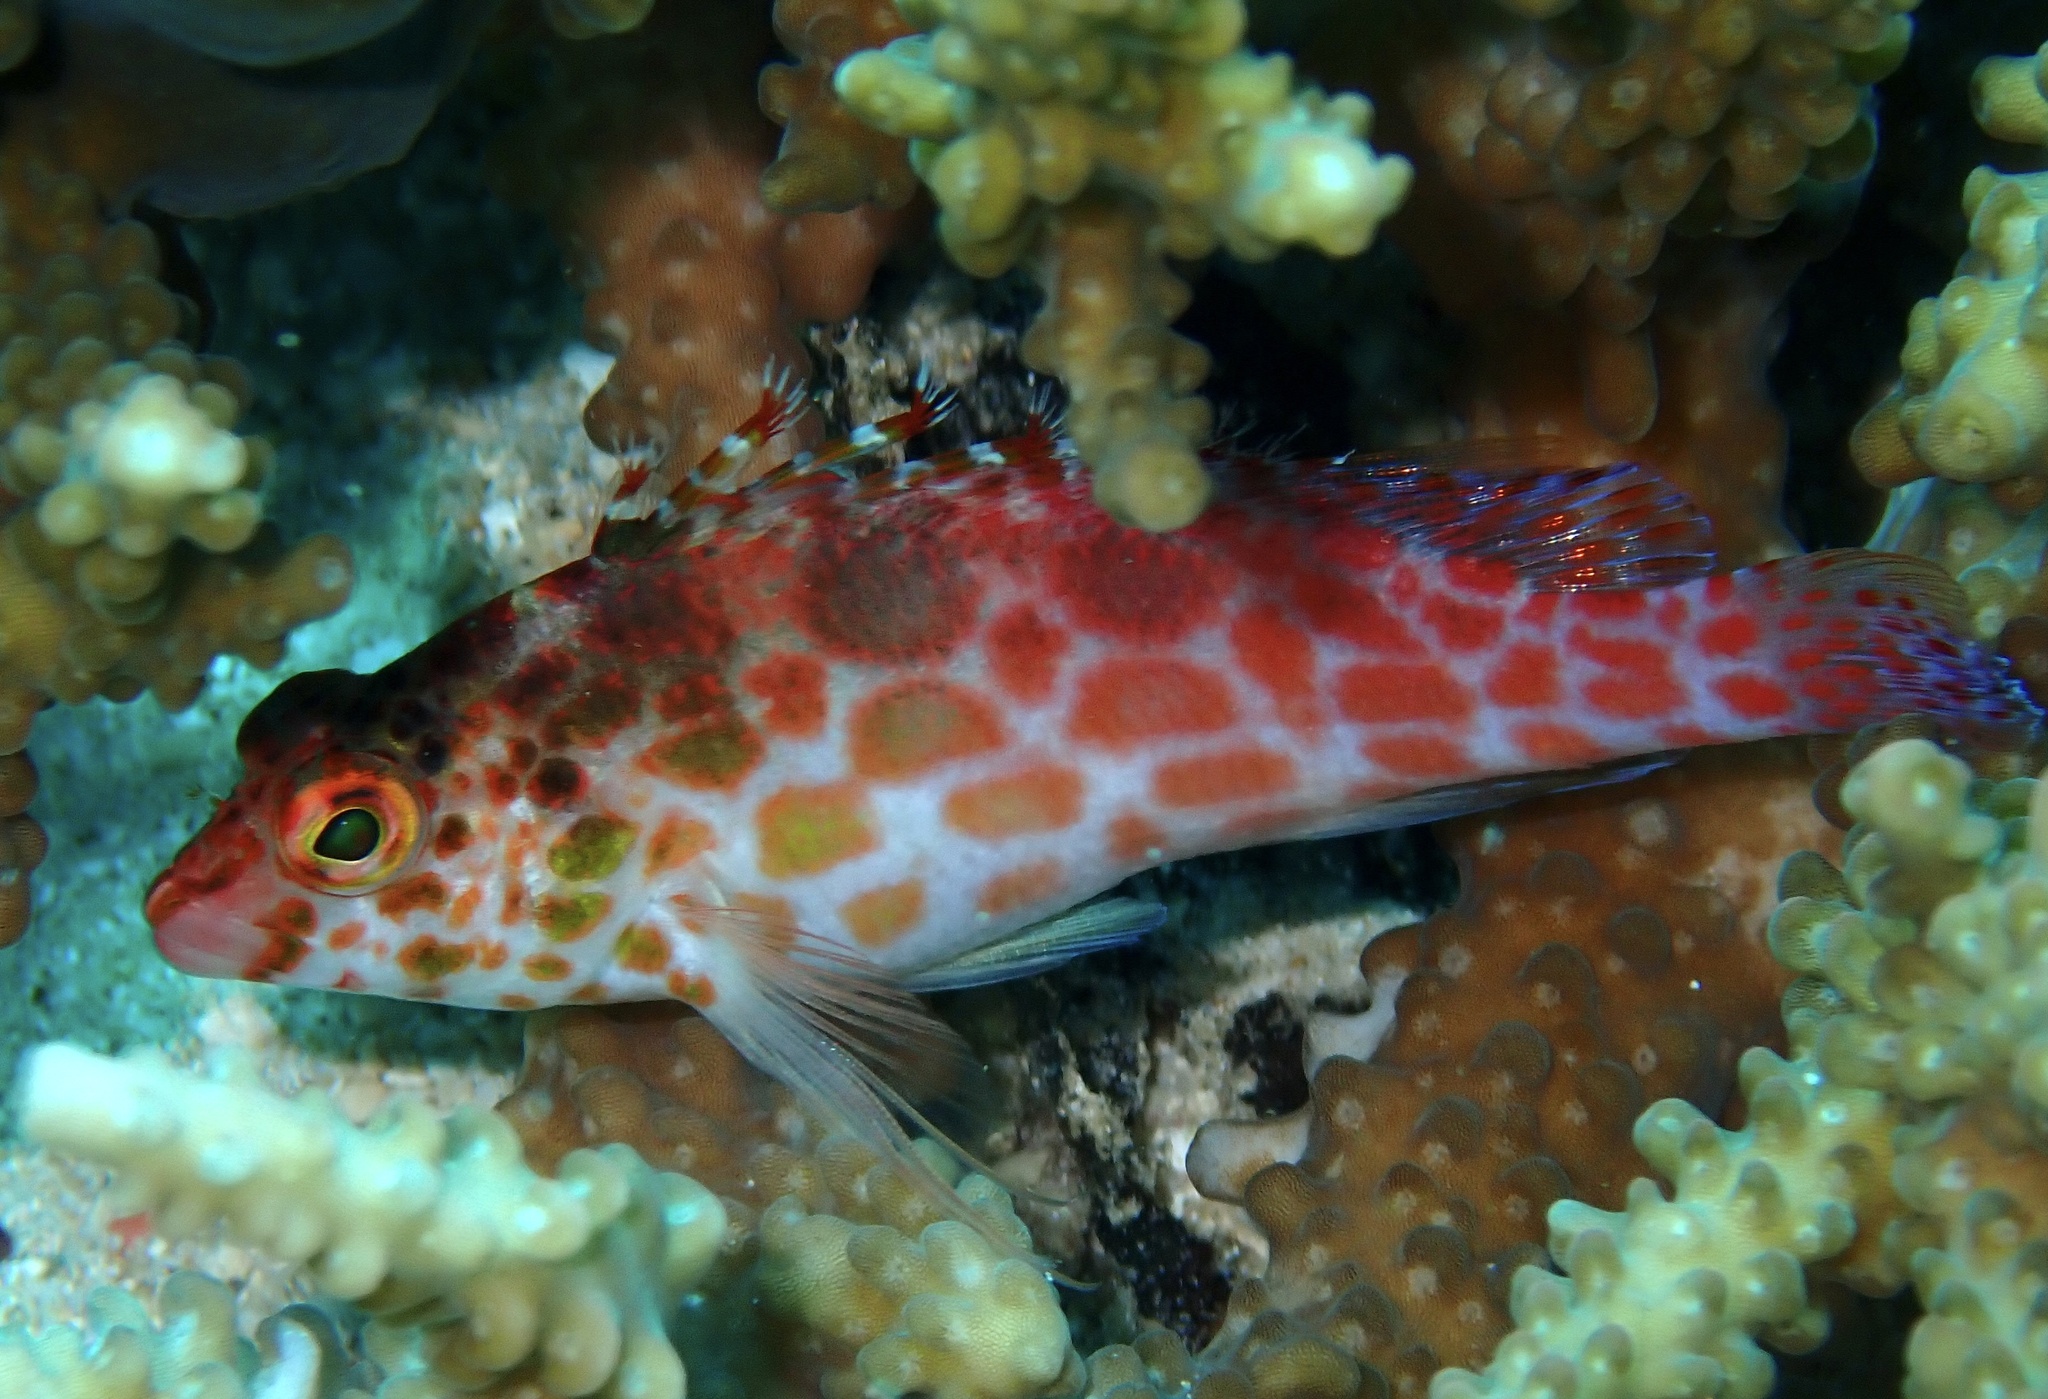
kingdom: Animalia
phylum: Chordata
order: Perciformes
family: Cirrhitidae
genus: Cirrhitichthys
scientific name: Cirrhitichthys oxycephalus
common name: Spotted hawkfish
